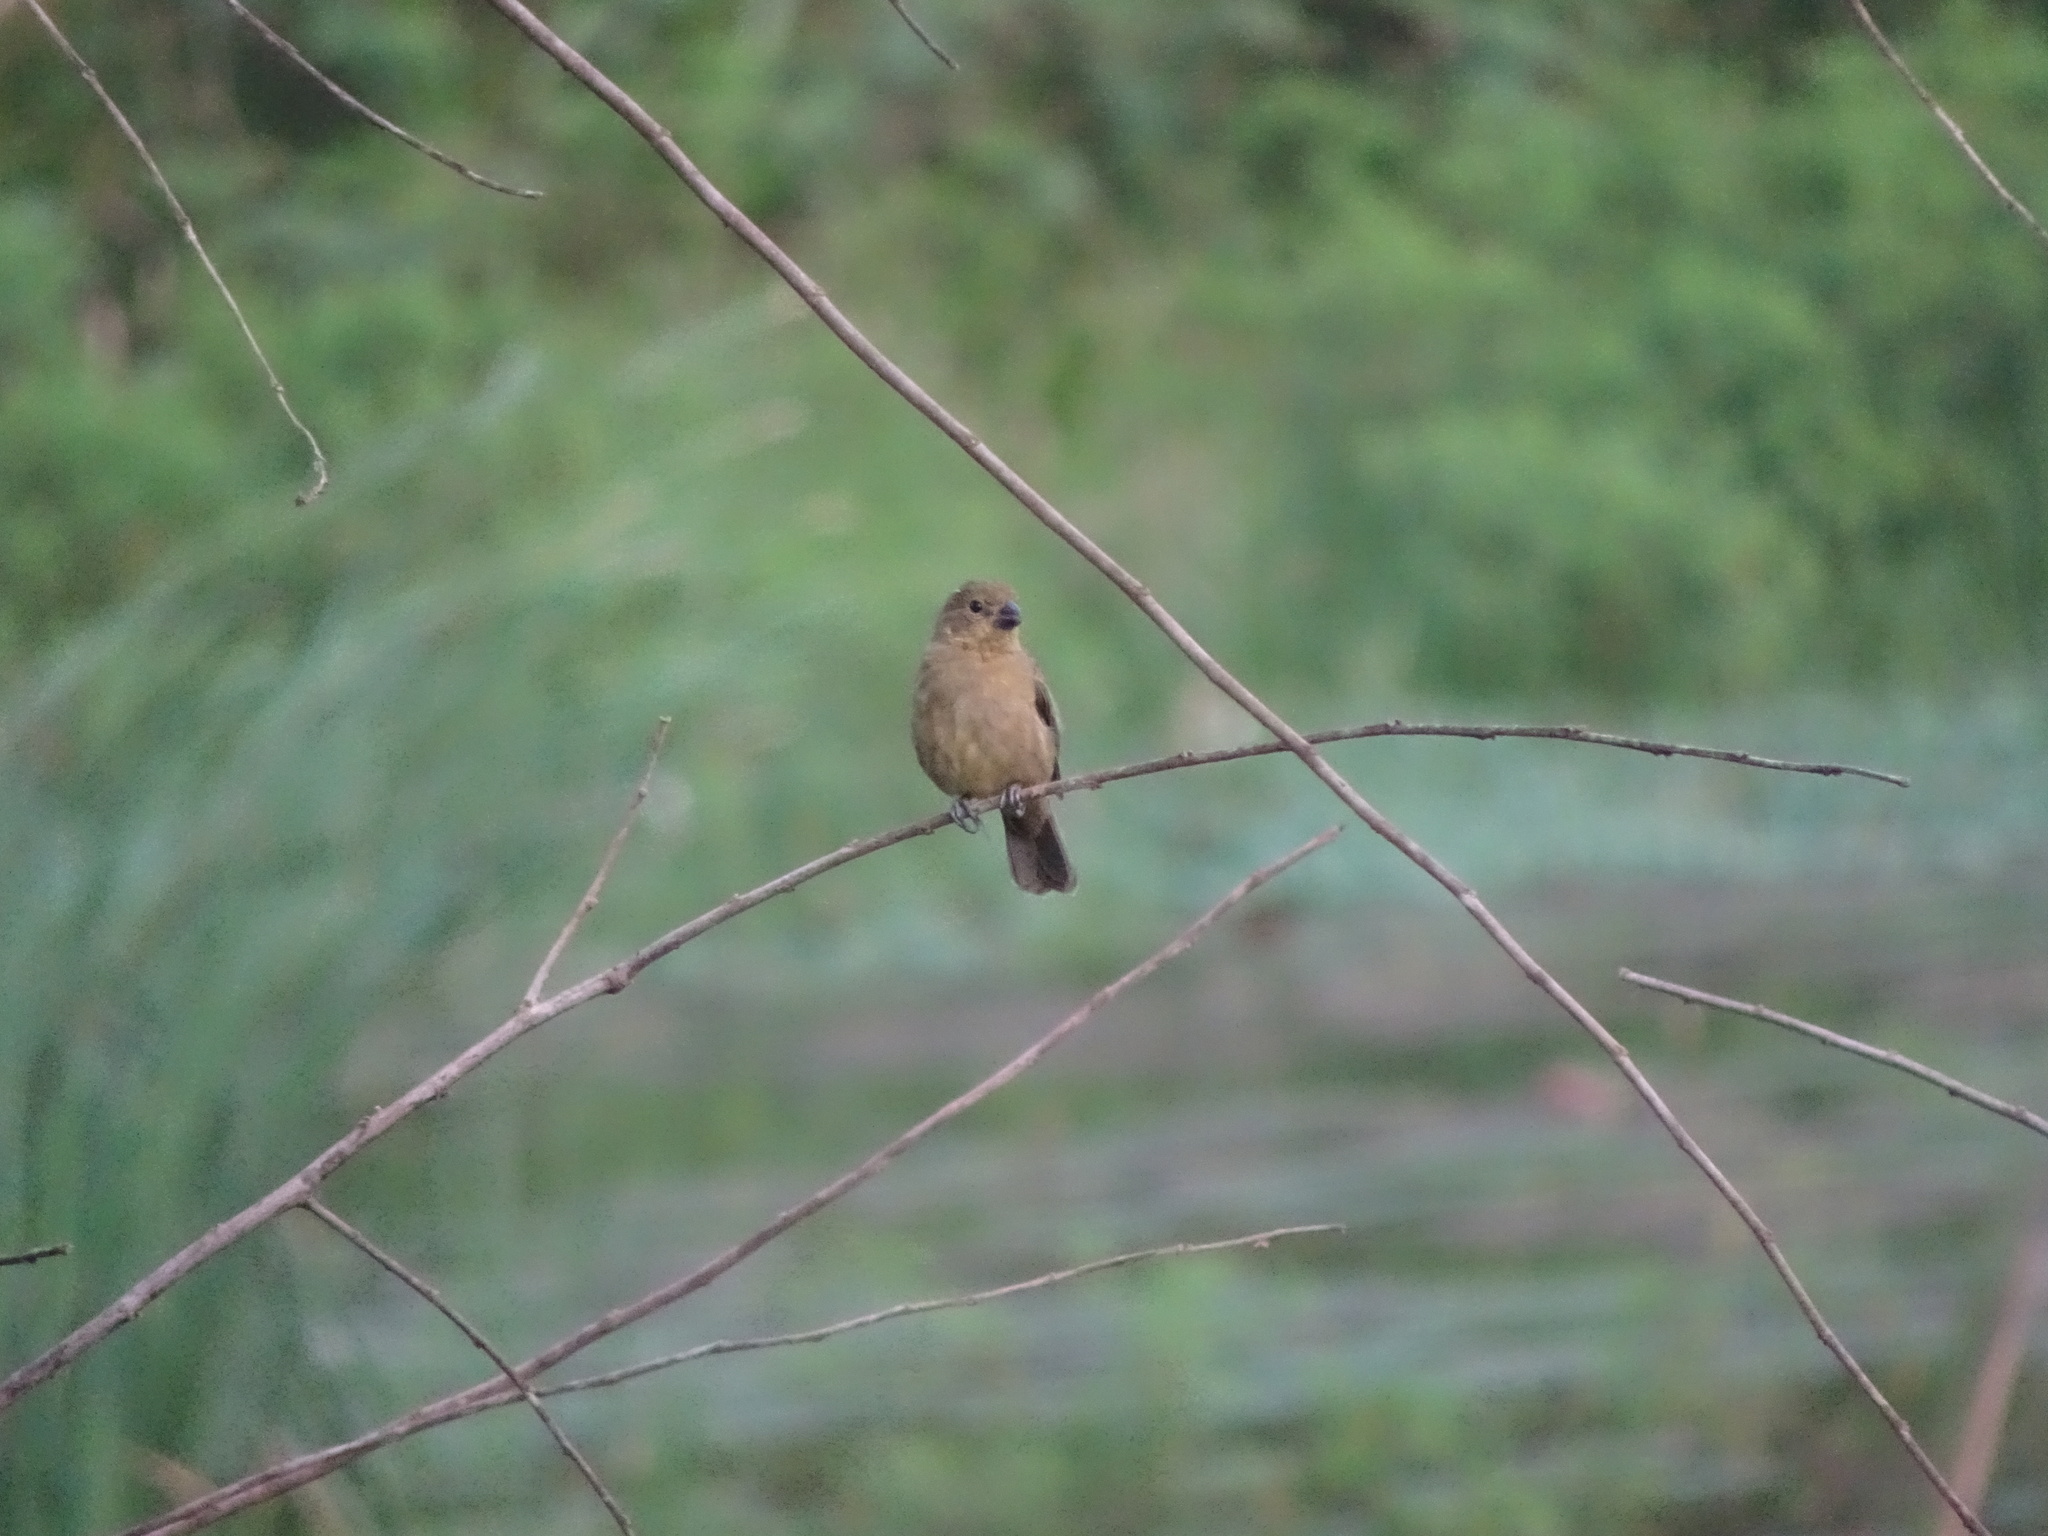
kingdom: Animalia
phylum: Chordata
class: Aves
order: Passeriformes
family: Thraupidae
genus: Sporophila
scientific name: Sporophila corvina
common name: Variable seedeater
